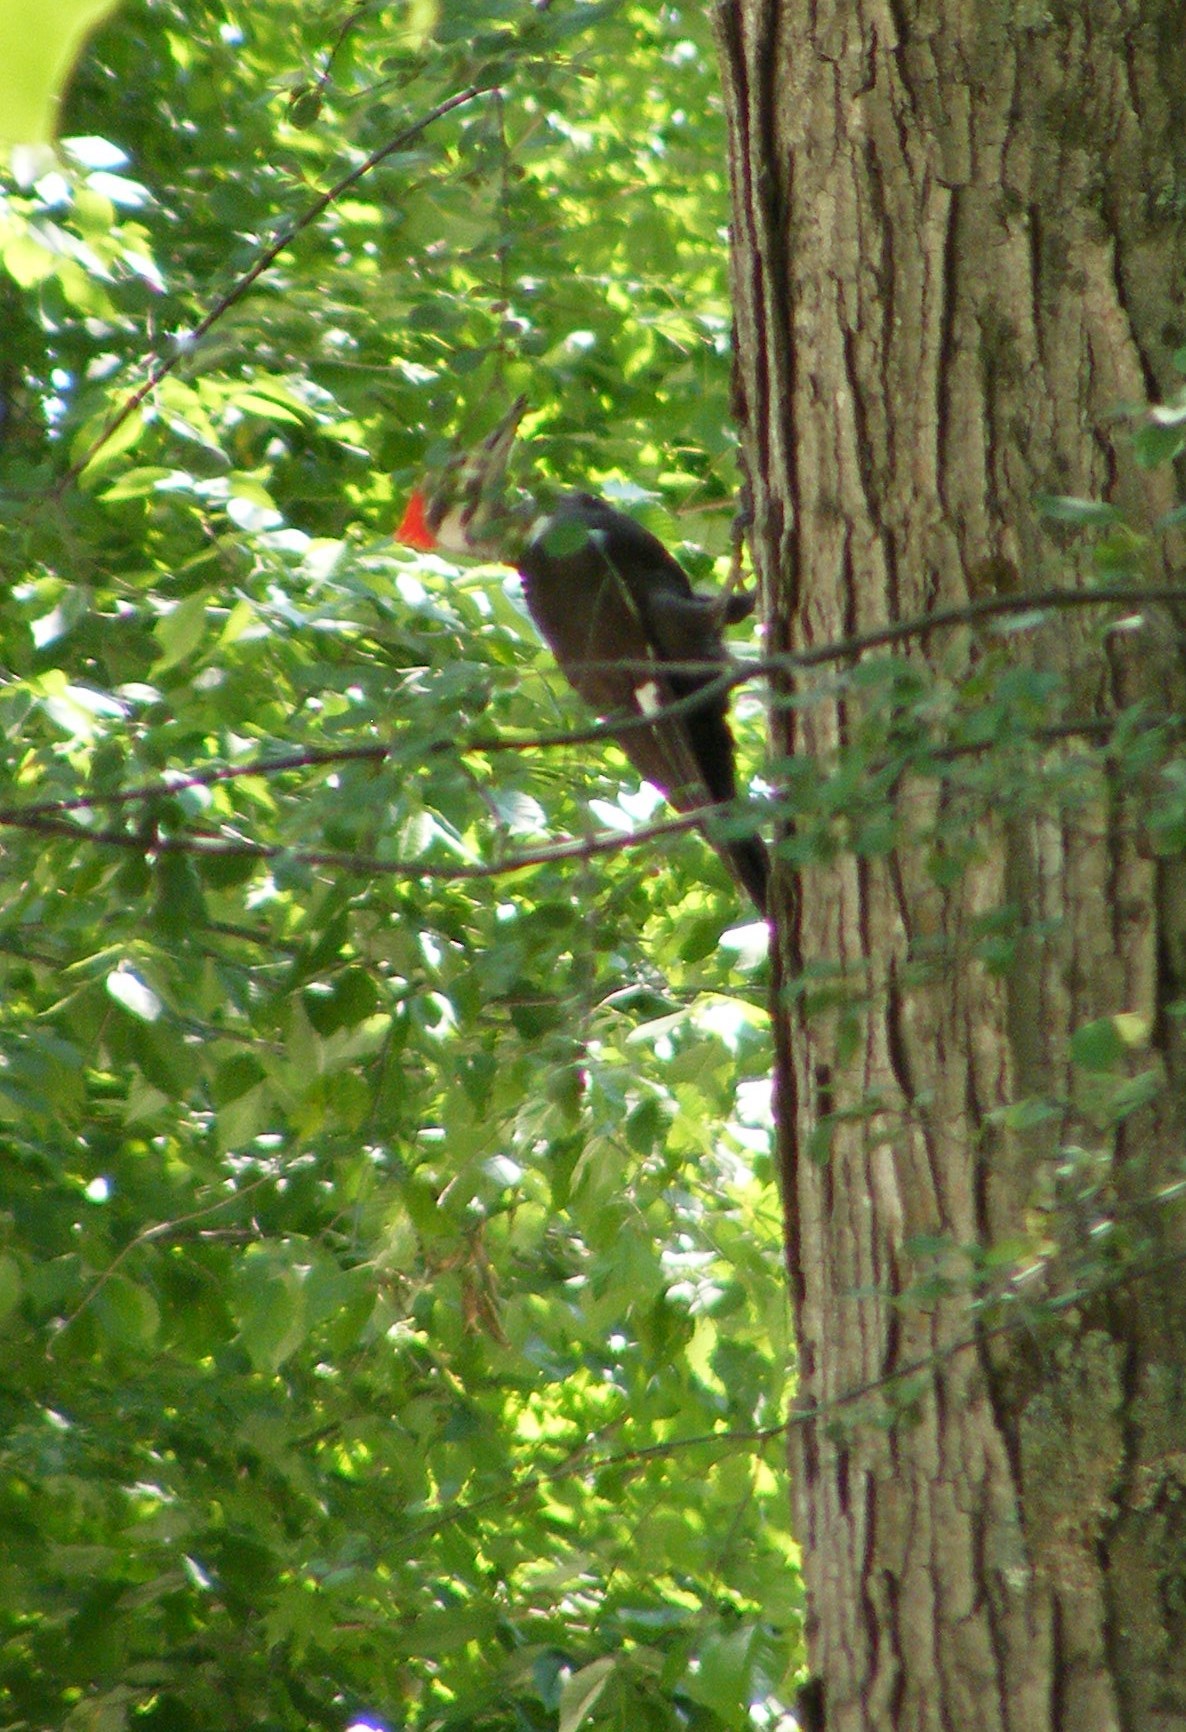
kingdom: Animalia
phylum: Chordata
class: Aves
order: Piciformes
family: Picidae
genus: Dryocopus
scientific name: Dryocopus pileatus
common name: Pileated woodpecker
